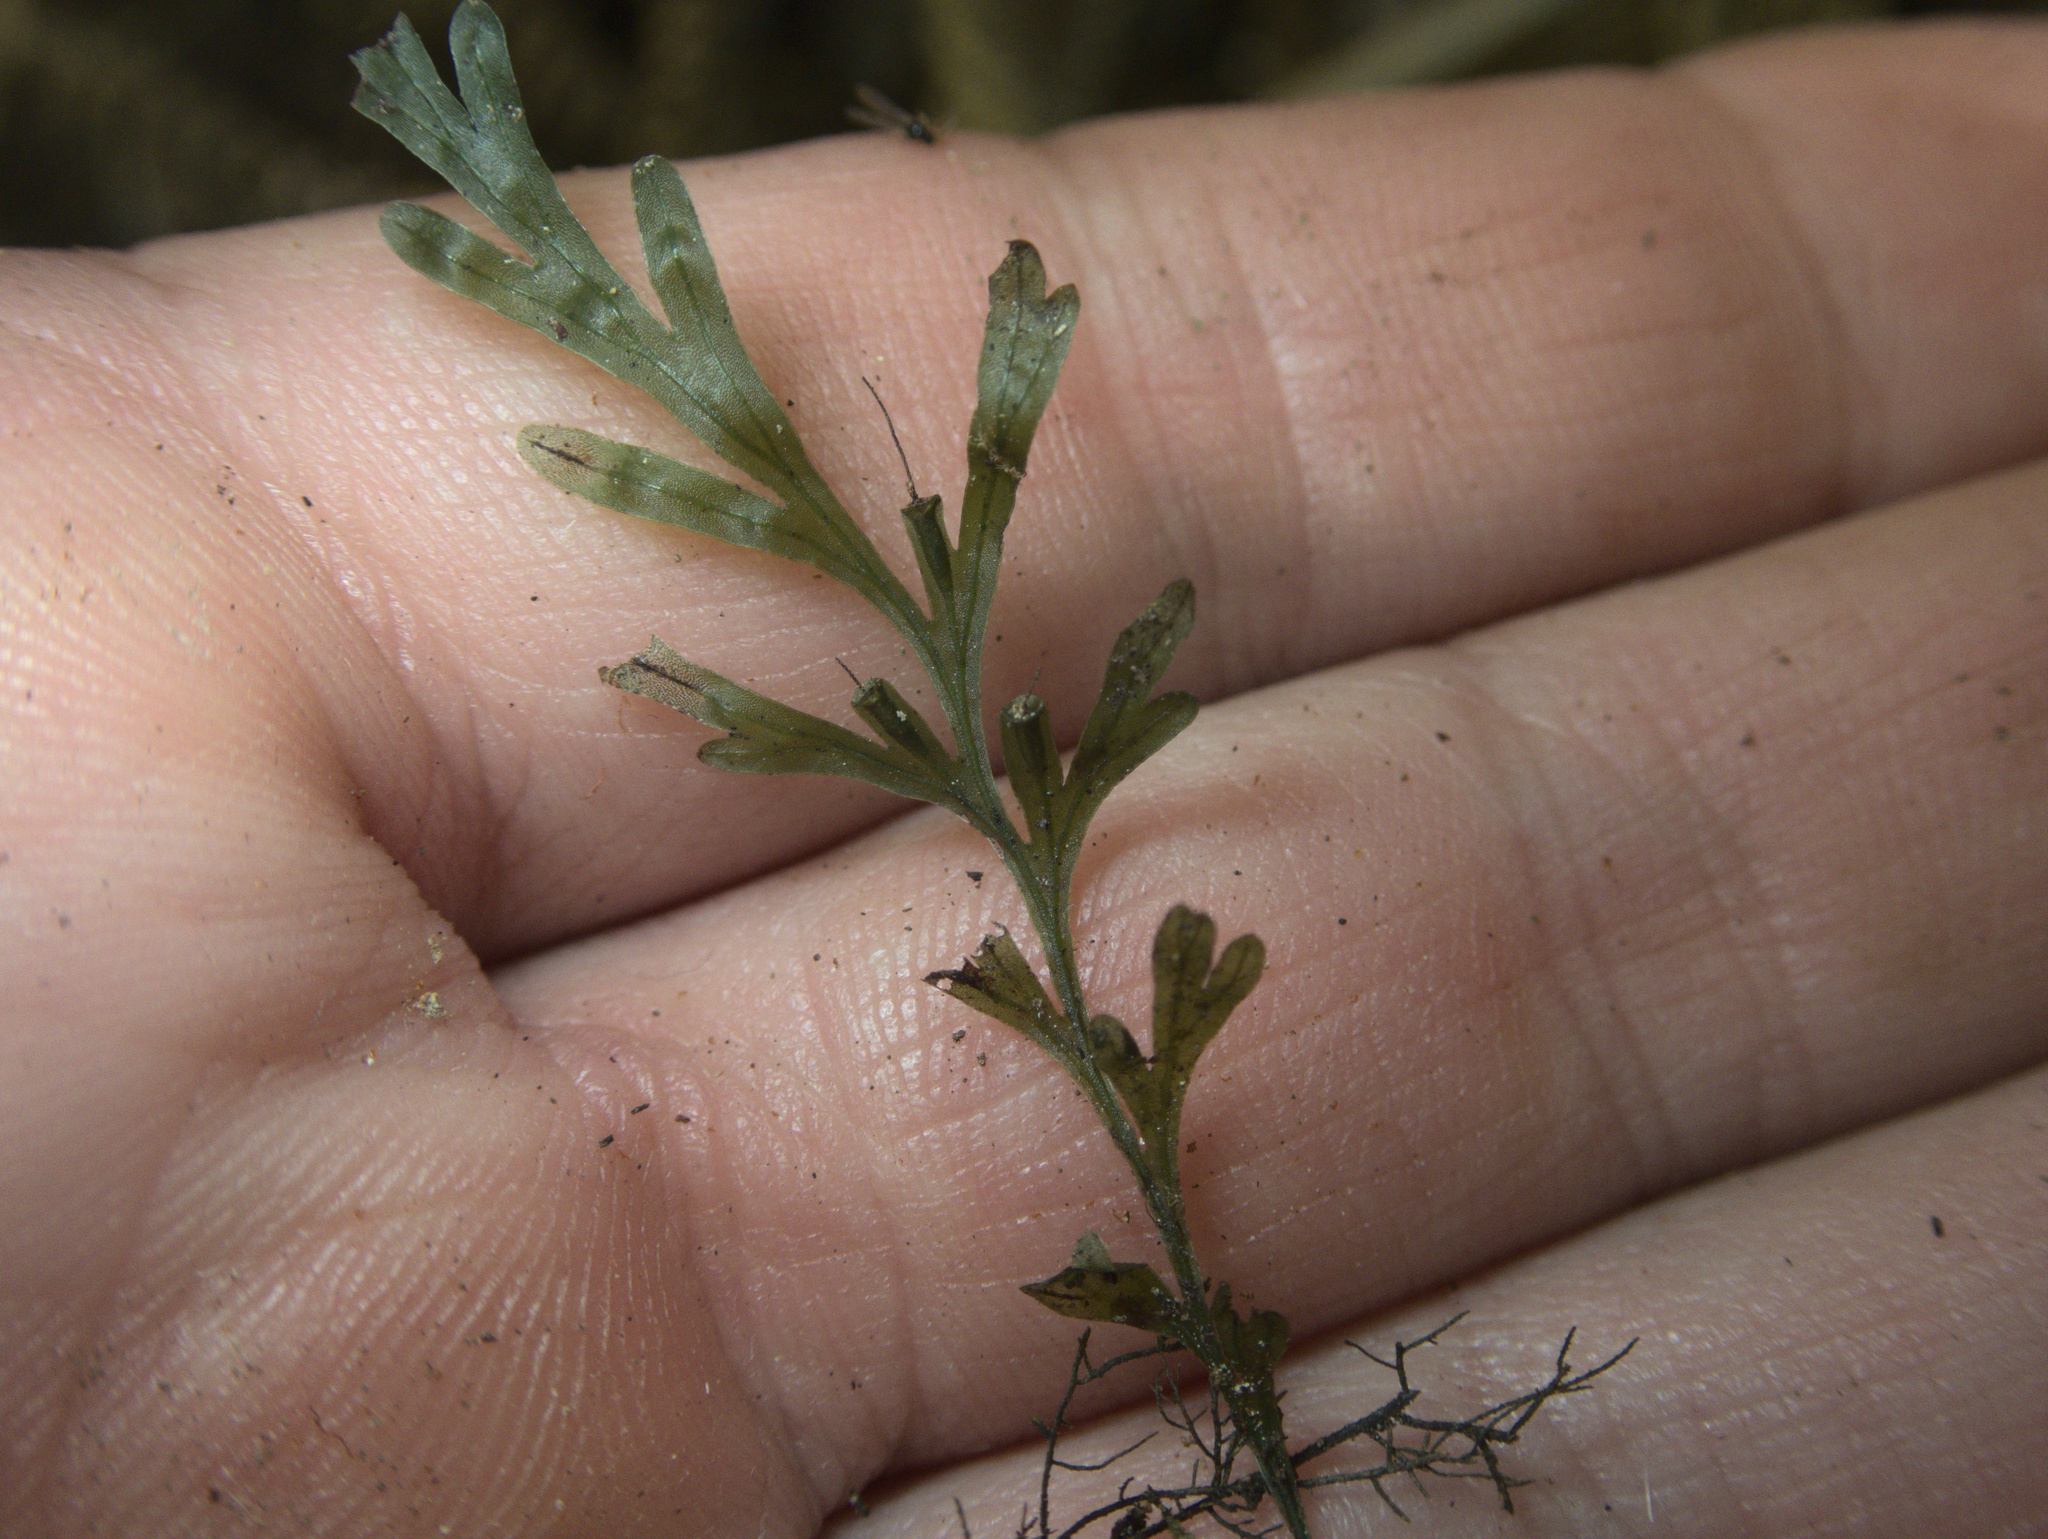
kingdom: Plantae
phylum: Tracheophyta
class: Polypodiopsida
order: Hymenophyllales
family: Hymenophyllaceae
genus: Polyphlebium
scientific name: Polyphlebium endlicherianum
